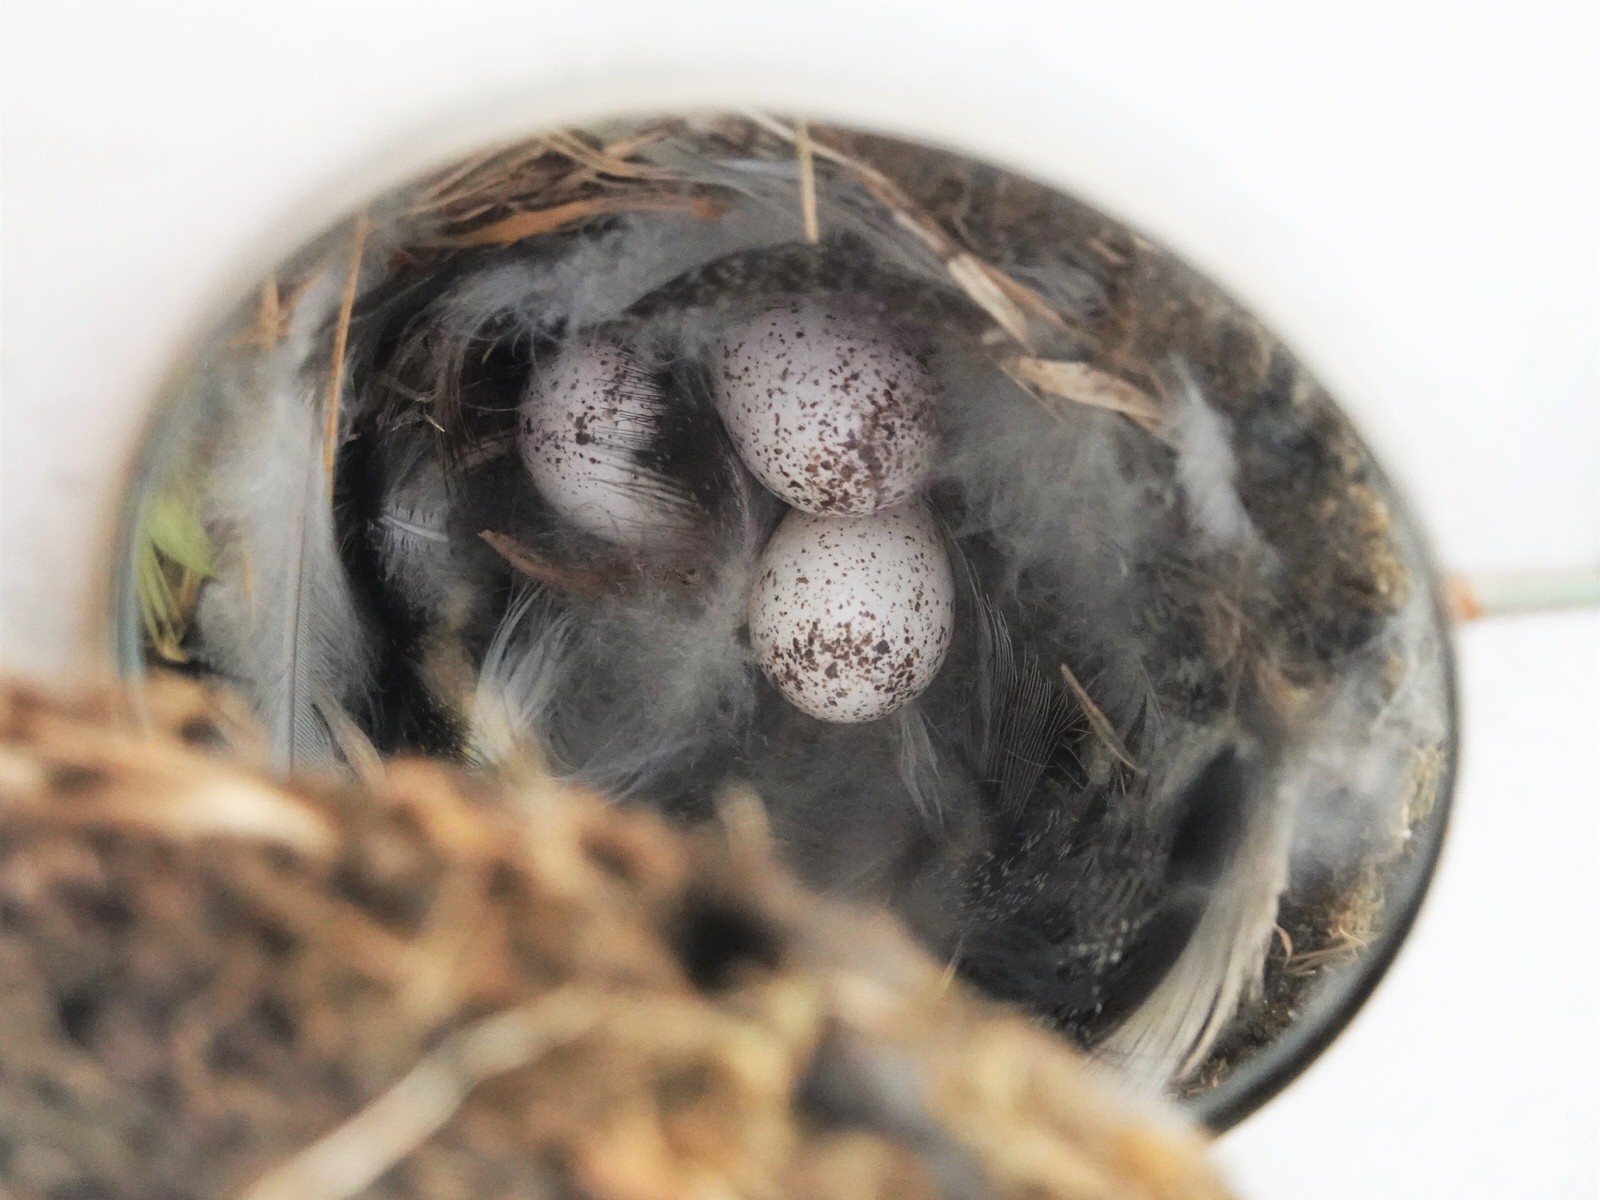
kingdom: Animalia
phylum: Chordata
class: Aves
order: Passeriformes
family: Hirundinidae
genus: Hirundo
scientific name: Hirundo neoxena
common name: Welcome swallow
